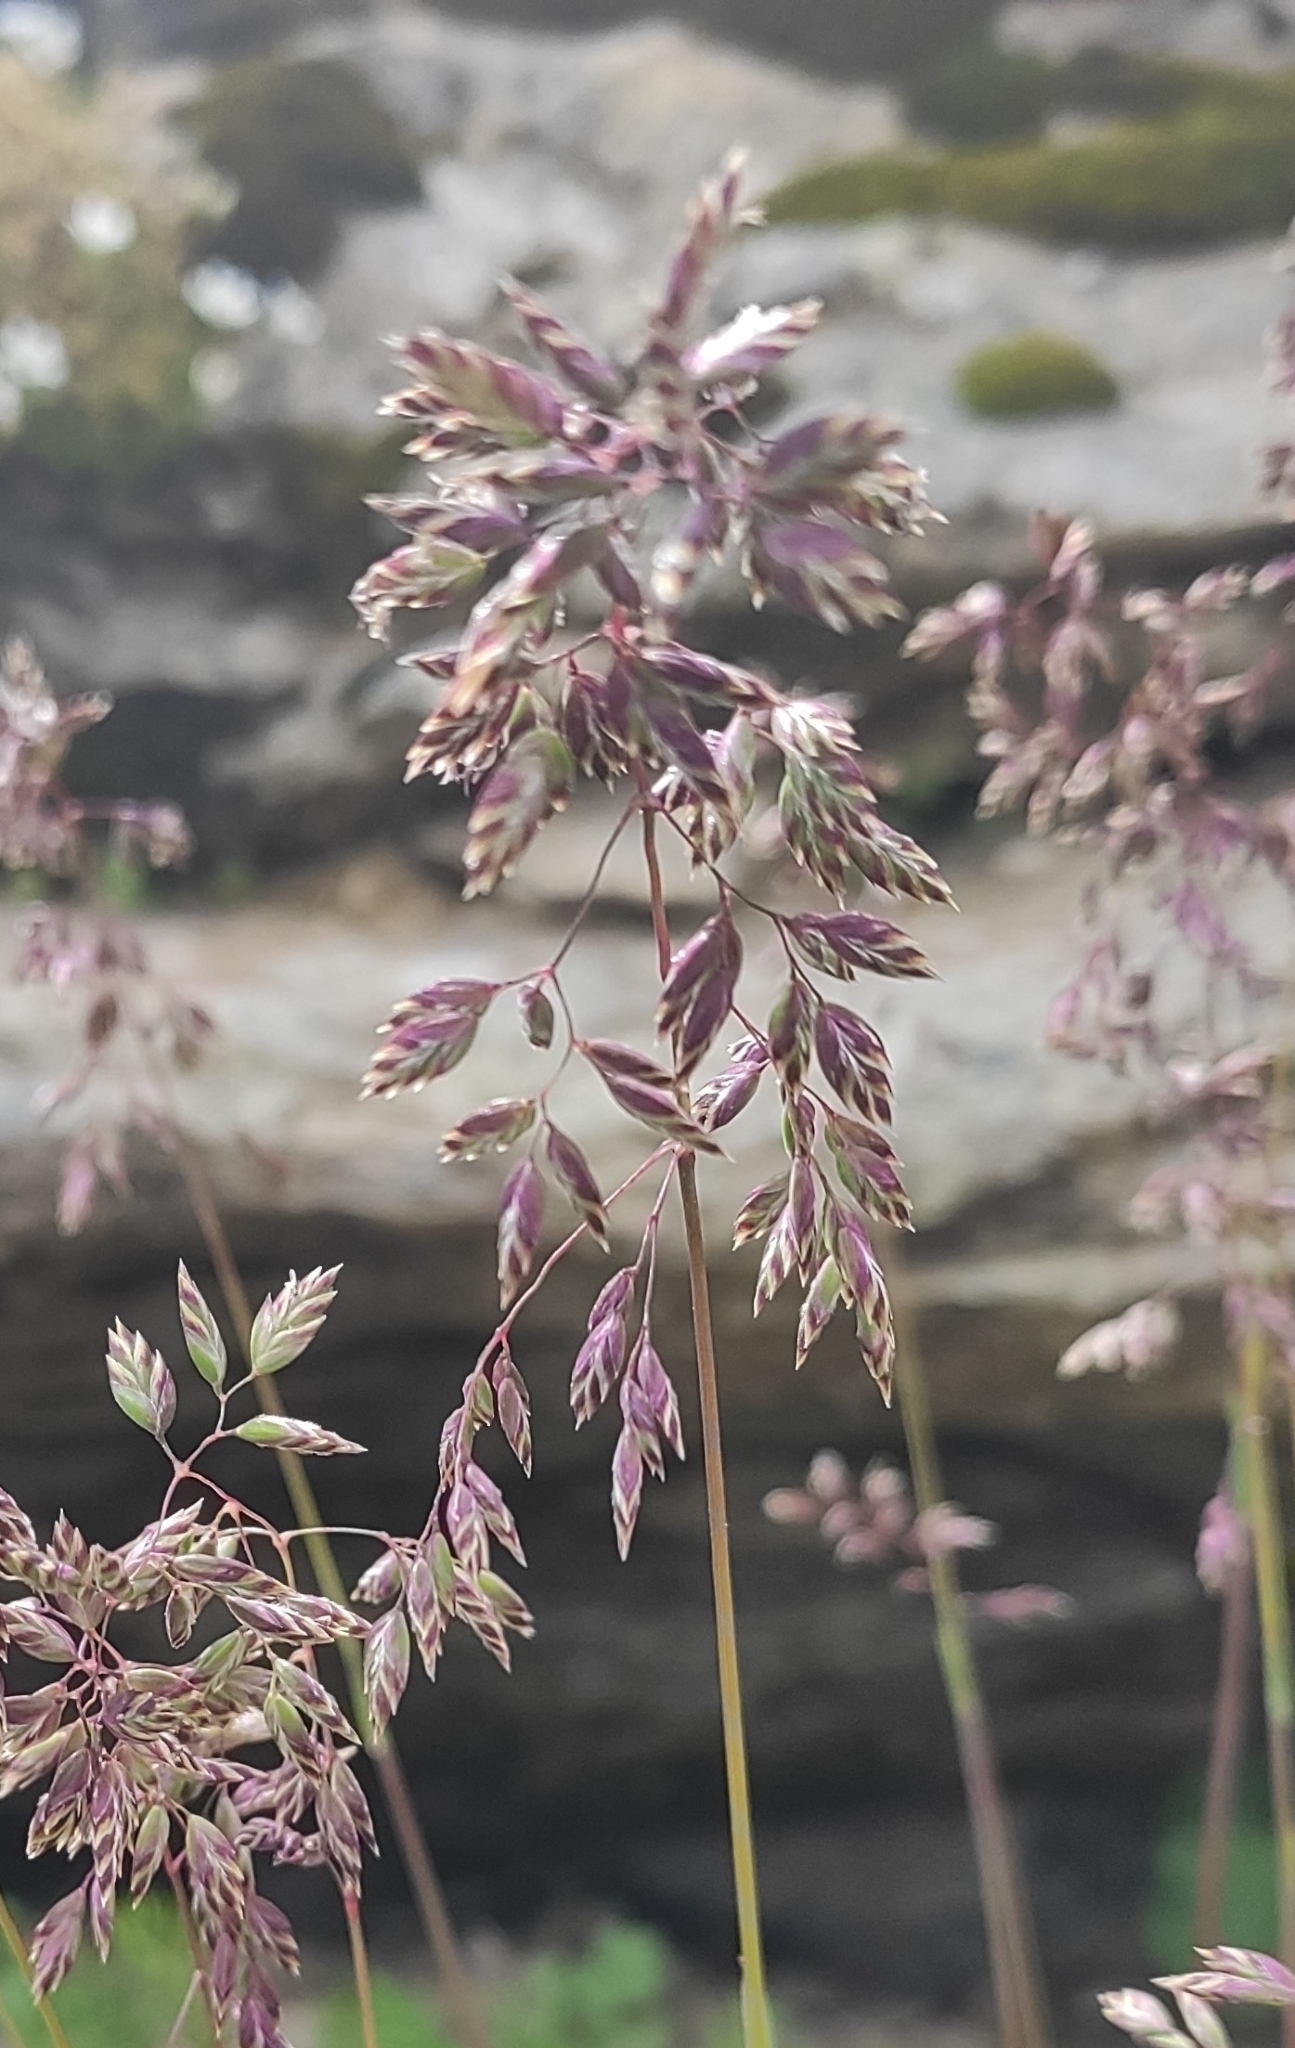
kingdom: Plantae
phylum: Tracheophyta
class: Liliopsida
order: Poales
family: Poaceae
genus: Poa
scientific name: Poa alpina
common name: Alpine bluegrass
